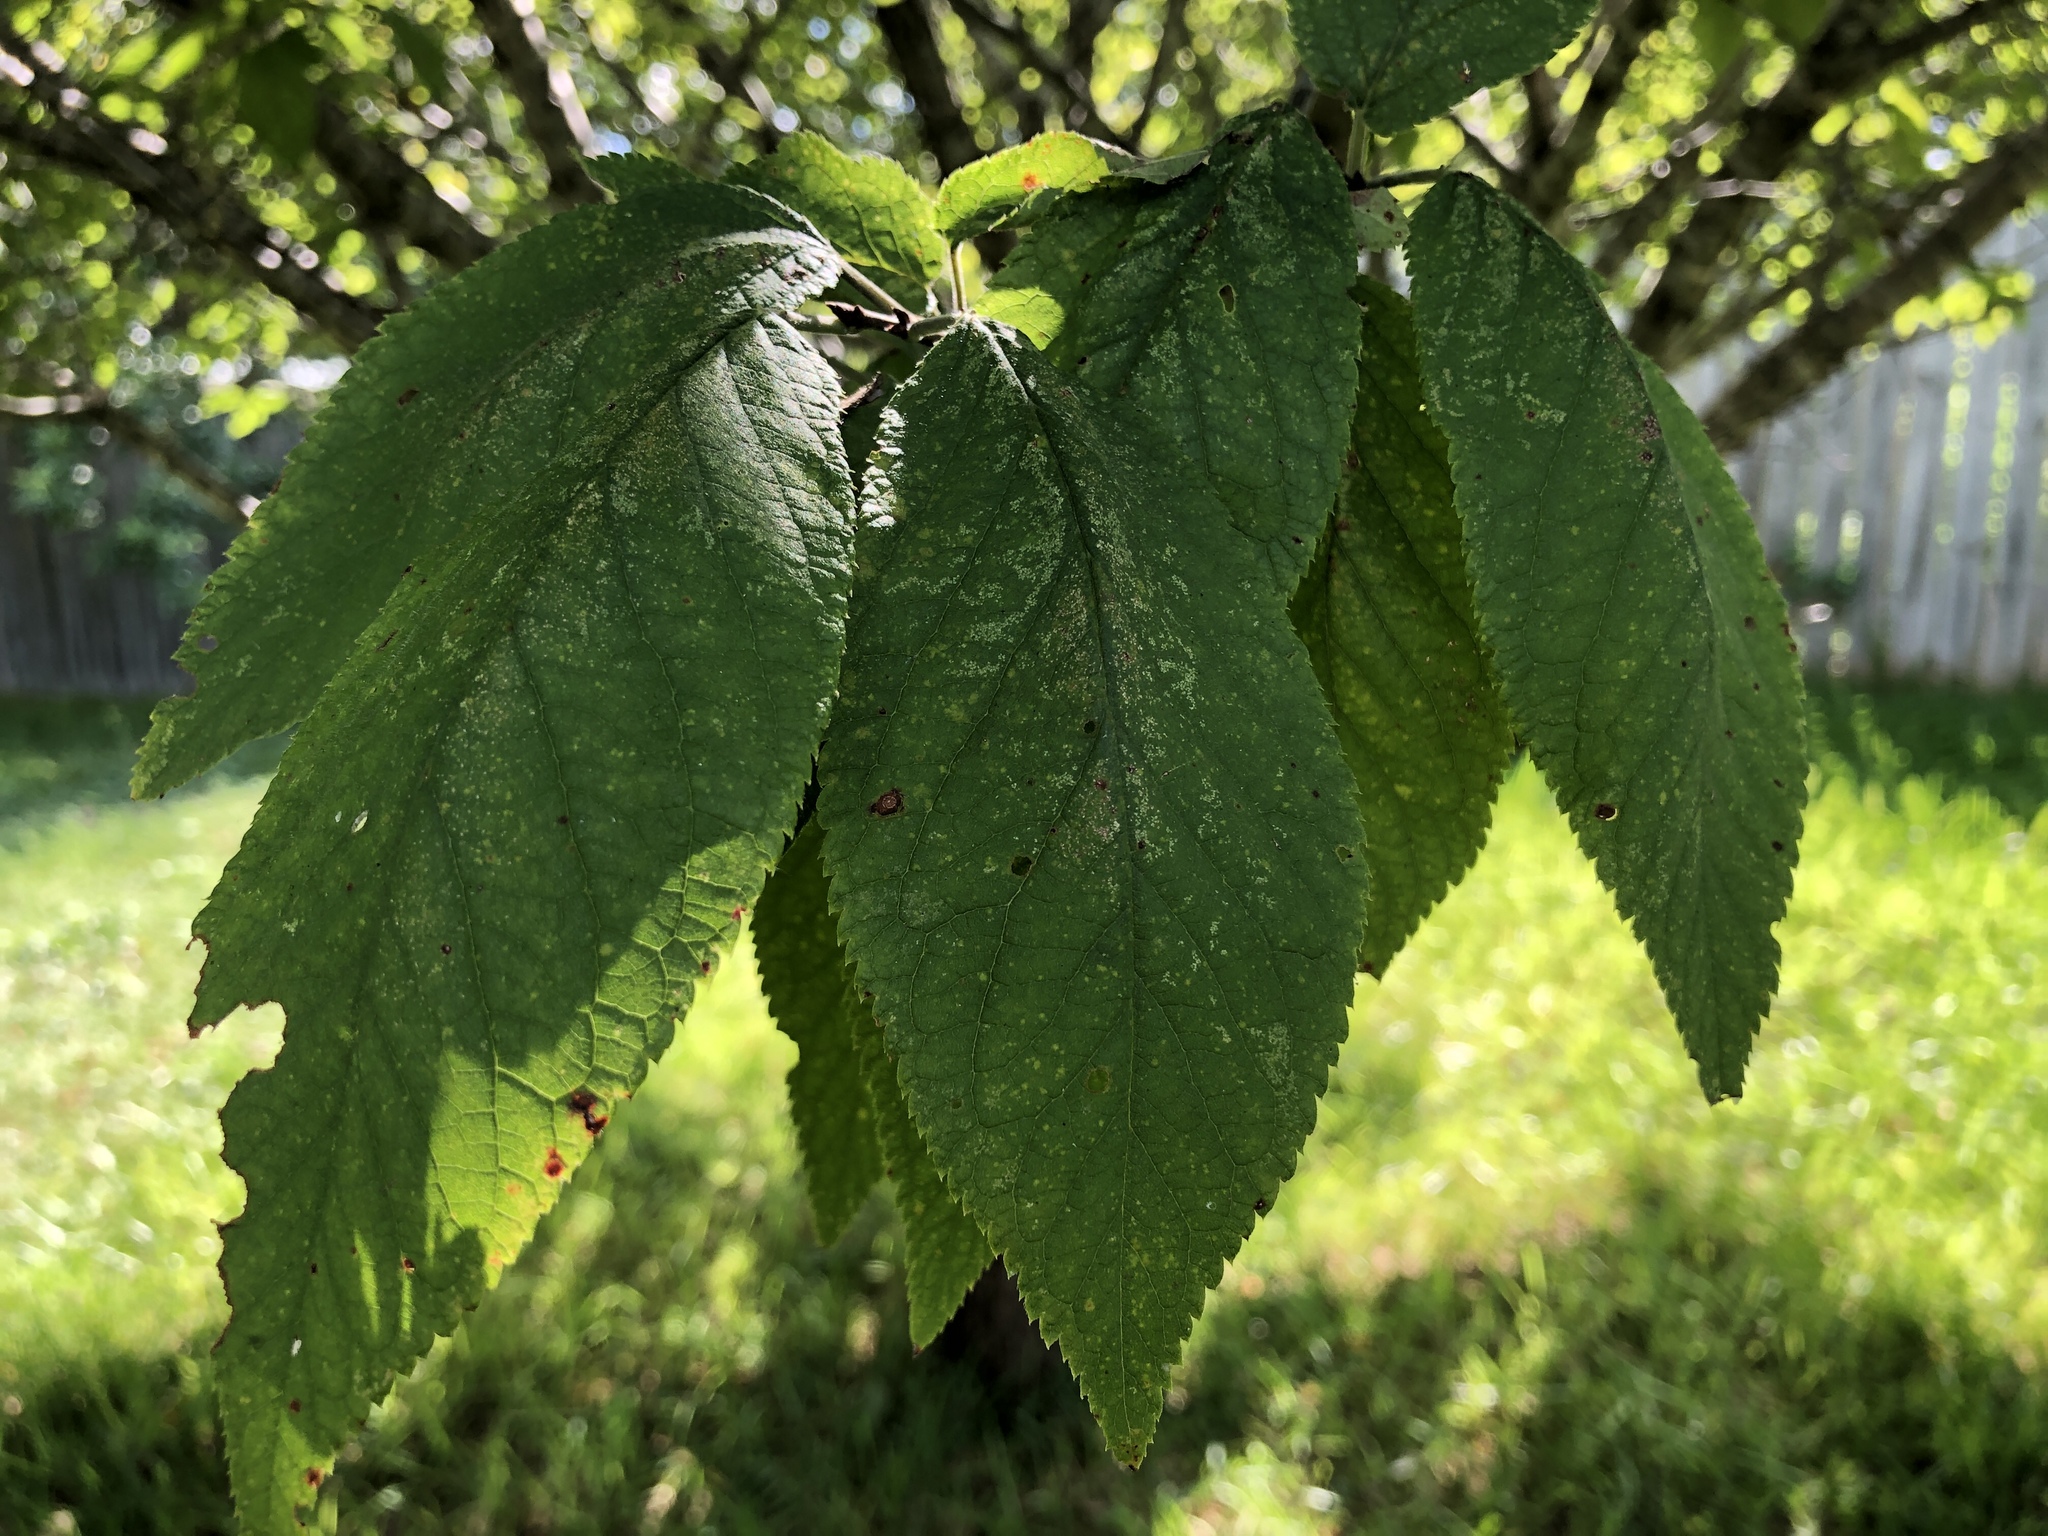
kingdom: Plantae
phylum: Tracheophyta
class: Magnoliopsida
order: Rosales
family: Rosaceae
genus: Prunus
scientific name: Prunus mexicana
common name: Mexican plum
